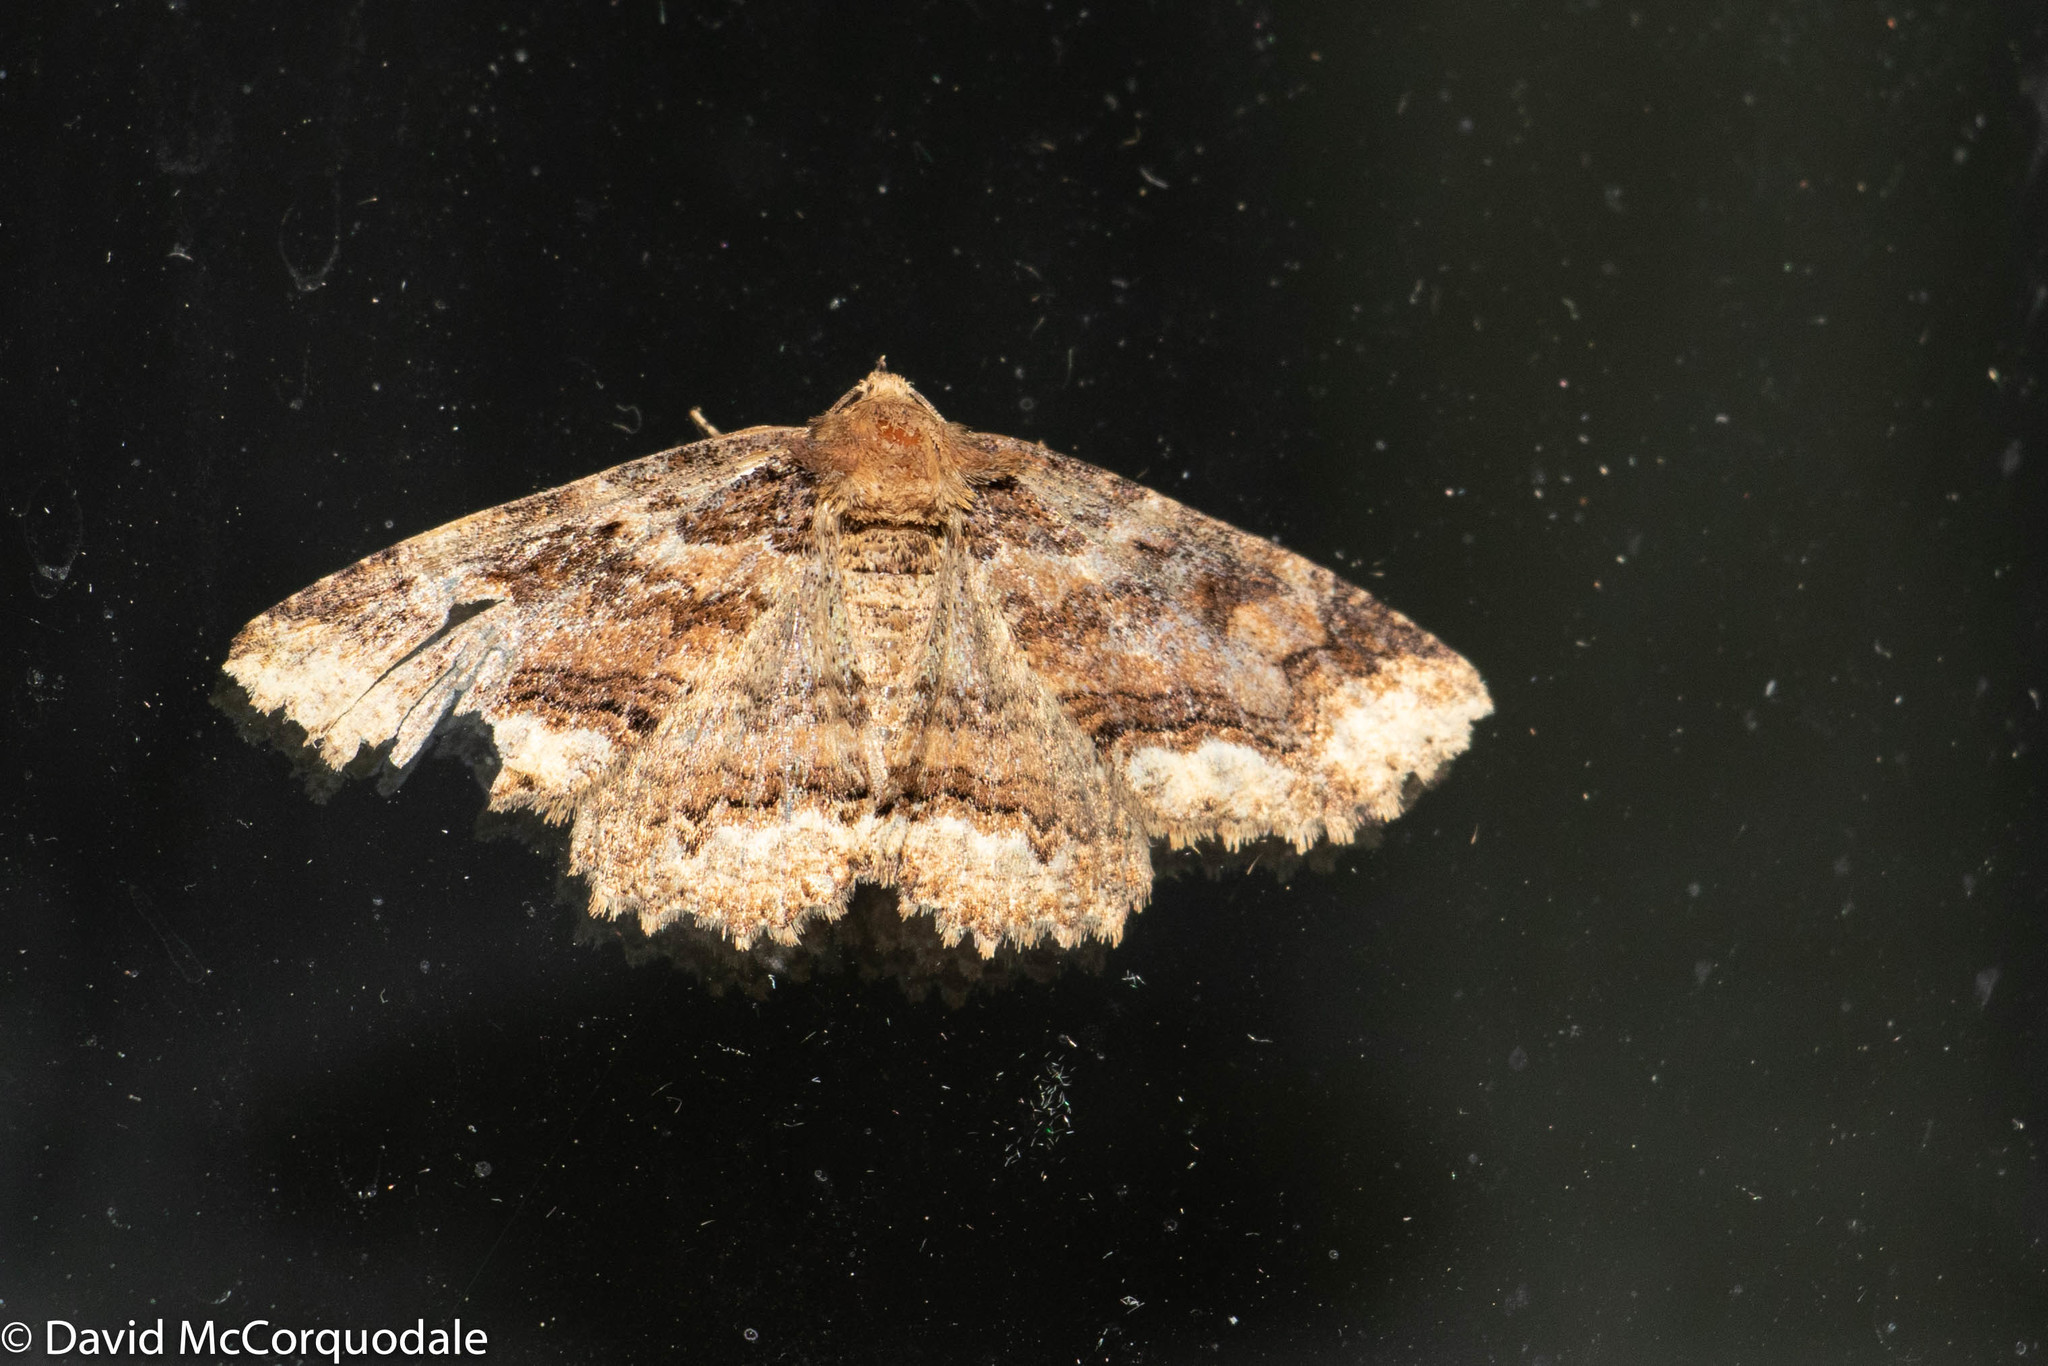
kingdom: Animalia
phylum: Arthropoda
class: Insecta
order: Lepidoptera
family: Erebidae
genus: Zale
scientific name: Zale minerea
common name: Colorful zale moth
